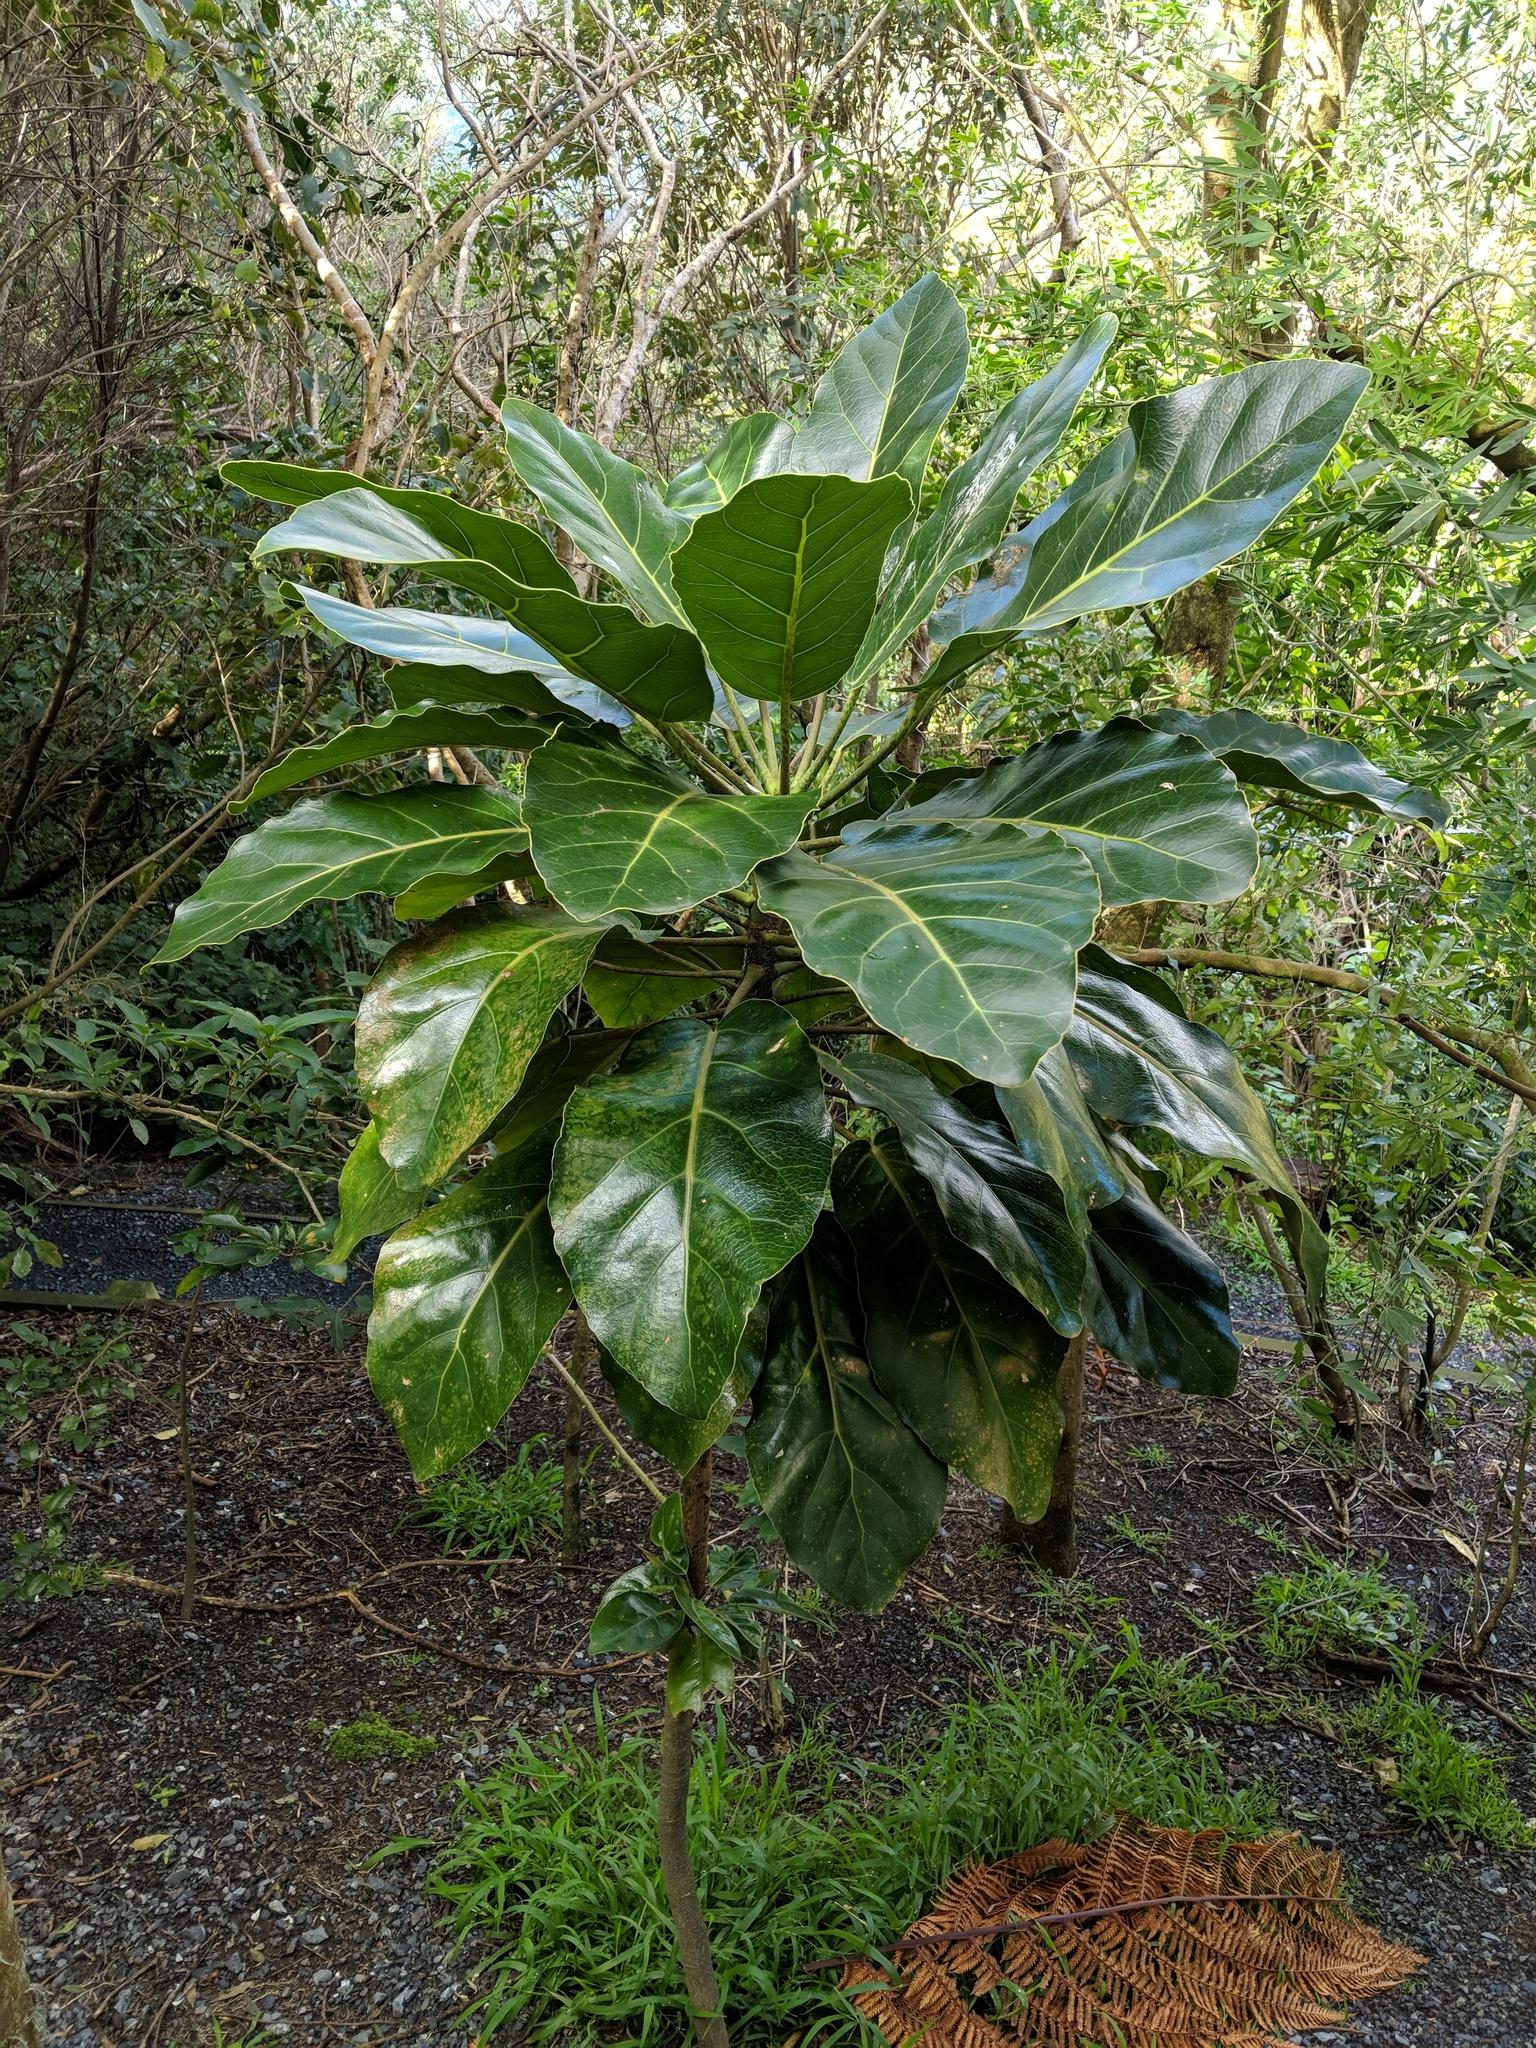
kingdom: Plantae
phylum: Tracheophyta
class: Magnoliopsida
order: Apiales
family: Araliaceae
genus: Meryta
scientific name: Meryta sinclairii
